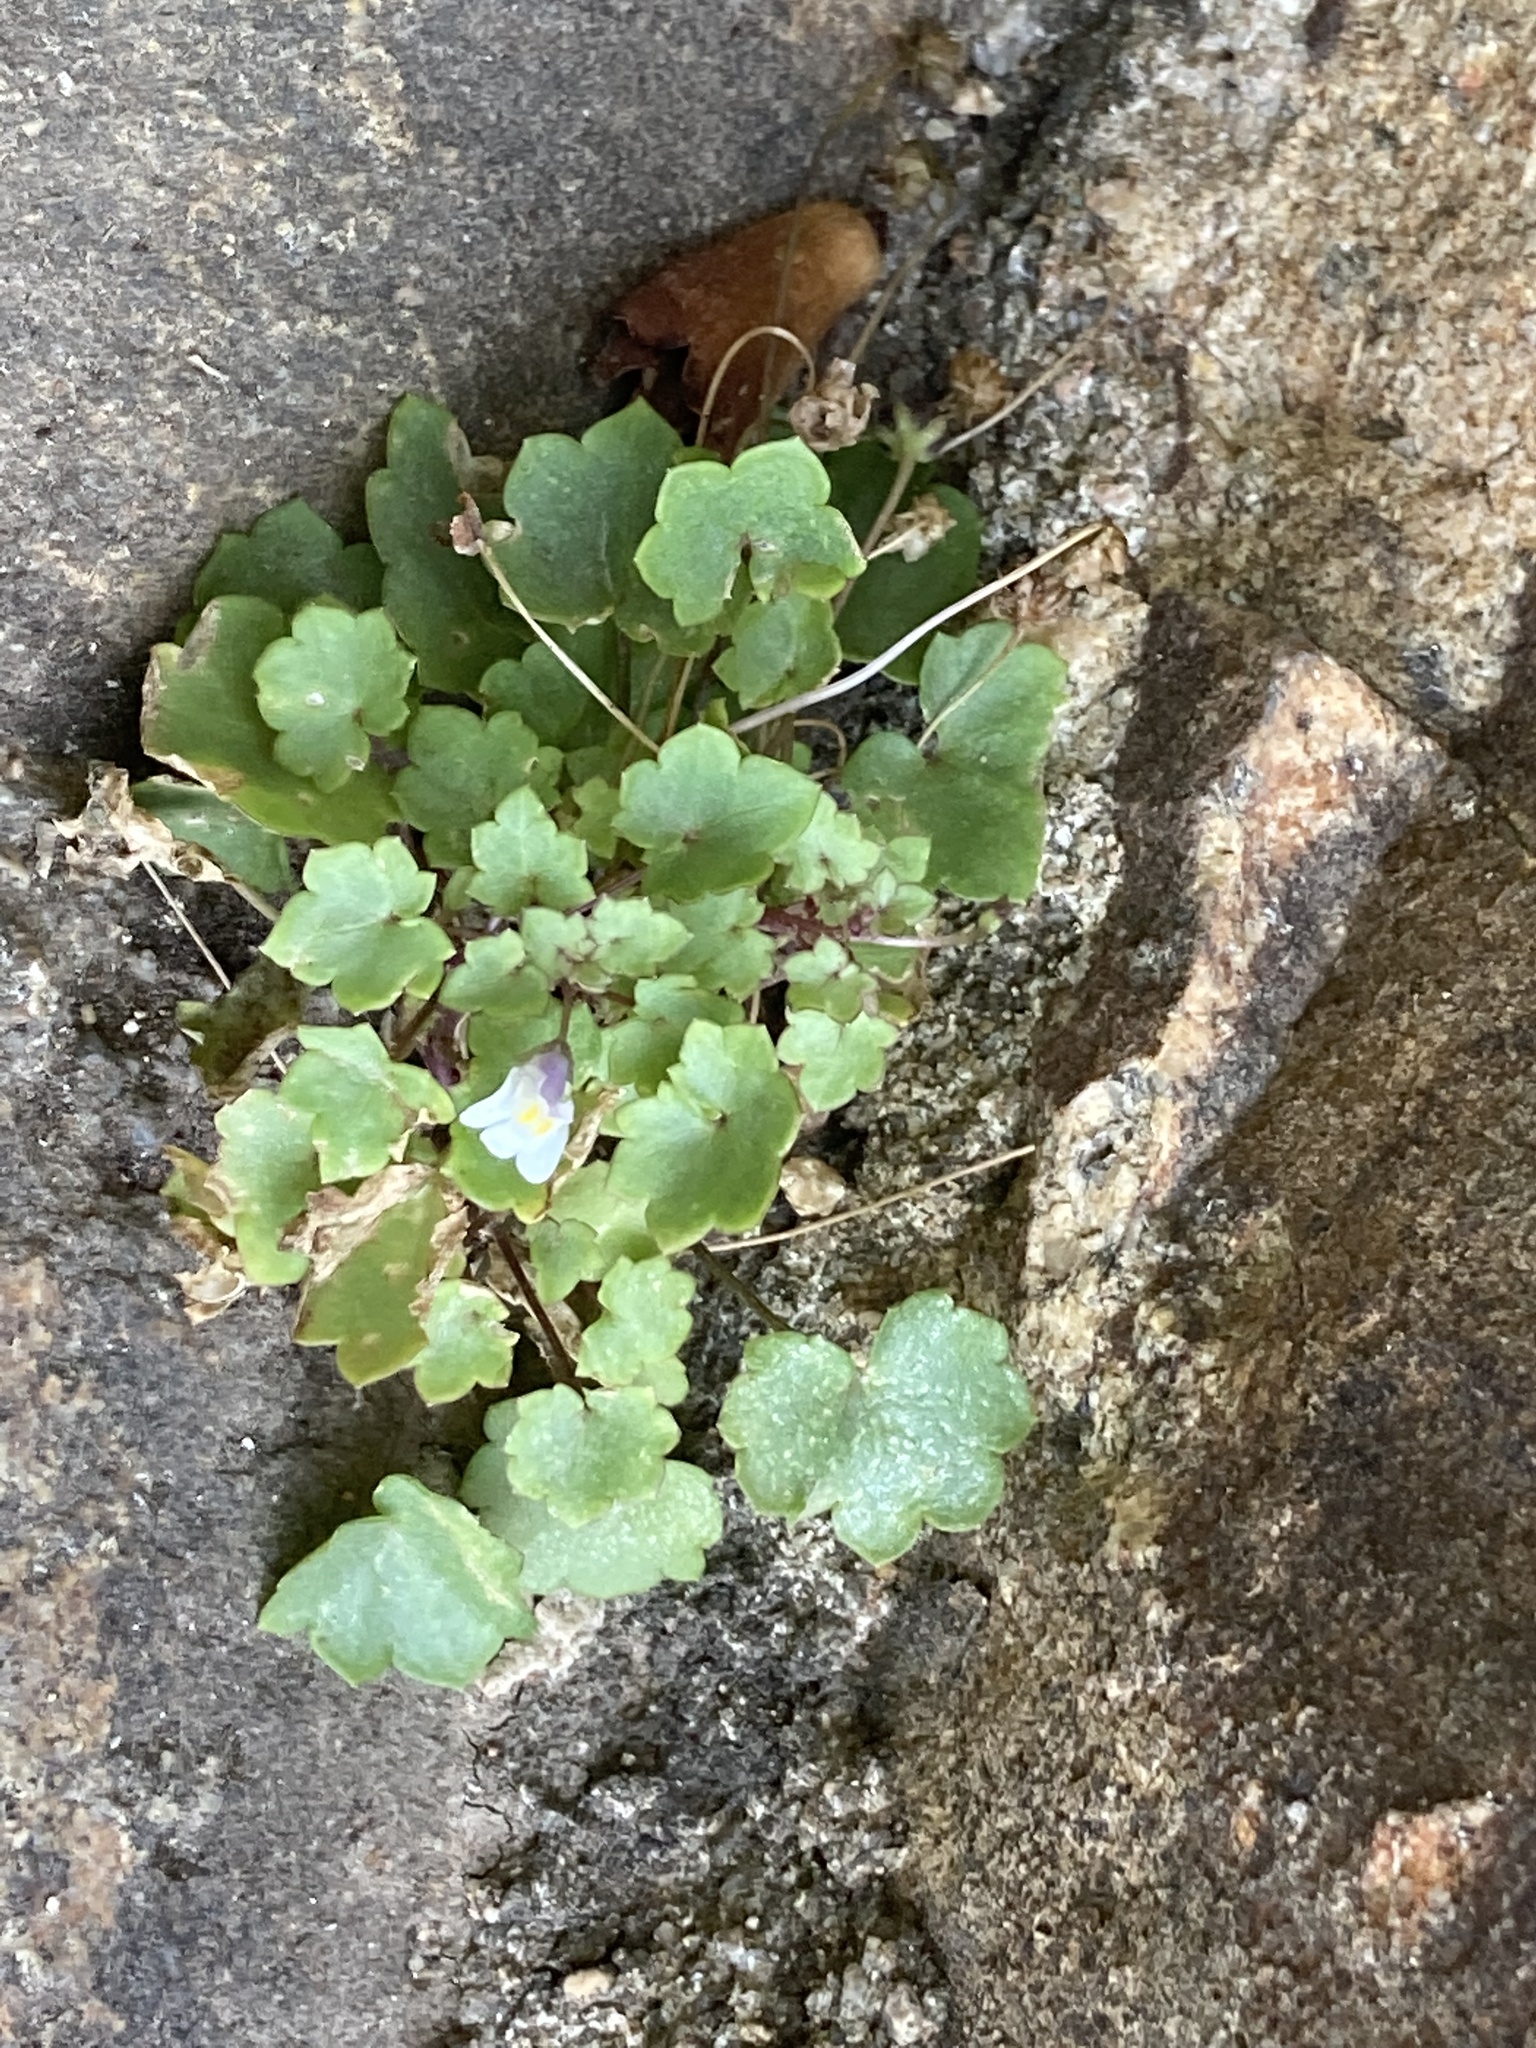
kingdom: Plantae
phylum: Tracheophyta
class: Magnoliopsida
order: Lamiales
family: Plantaginaceae
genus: Cymbalaria
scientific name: Cymbalaria muralis
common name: Ivy-leaved toadflax
